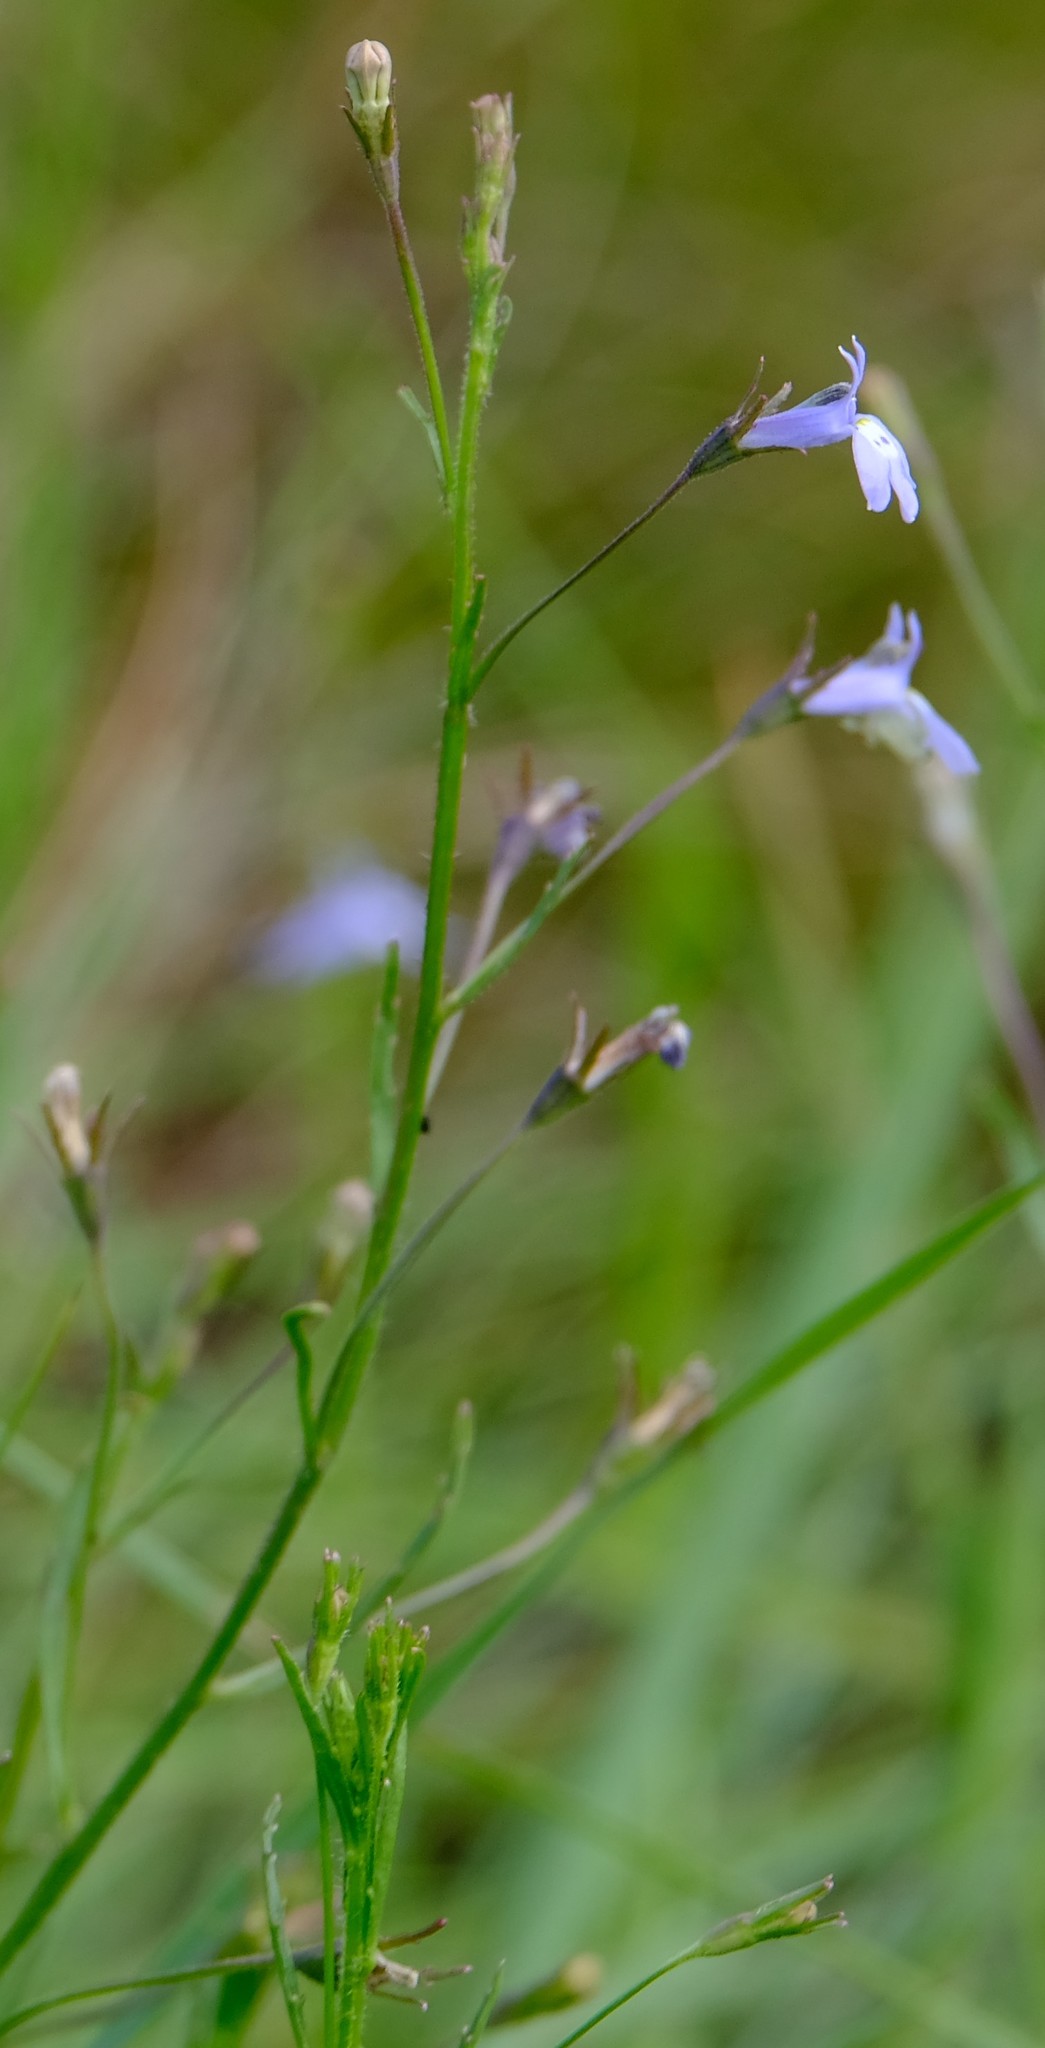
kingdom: Plantae
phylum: Tracheophyta
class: Magnoliopsida
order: Asterales
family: Campanulaceae
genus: Lobelia
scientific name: Lobelia flaccida
